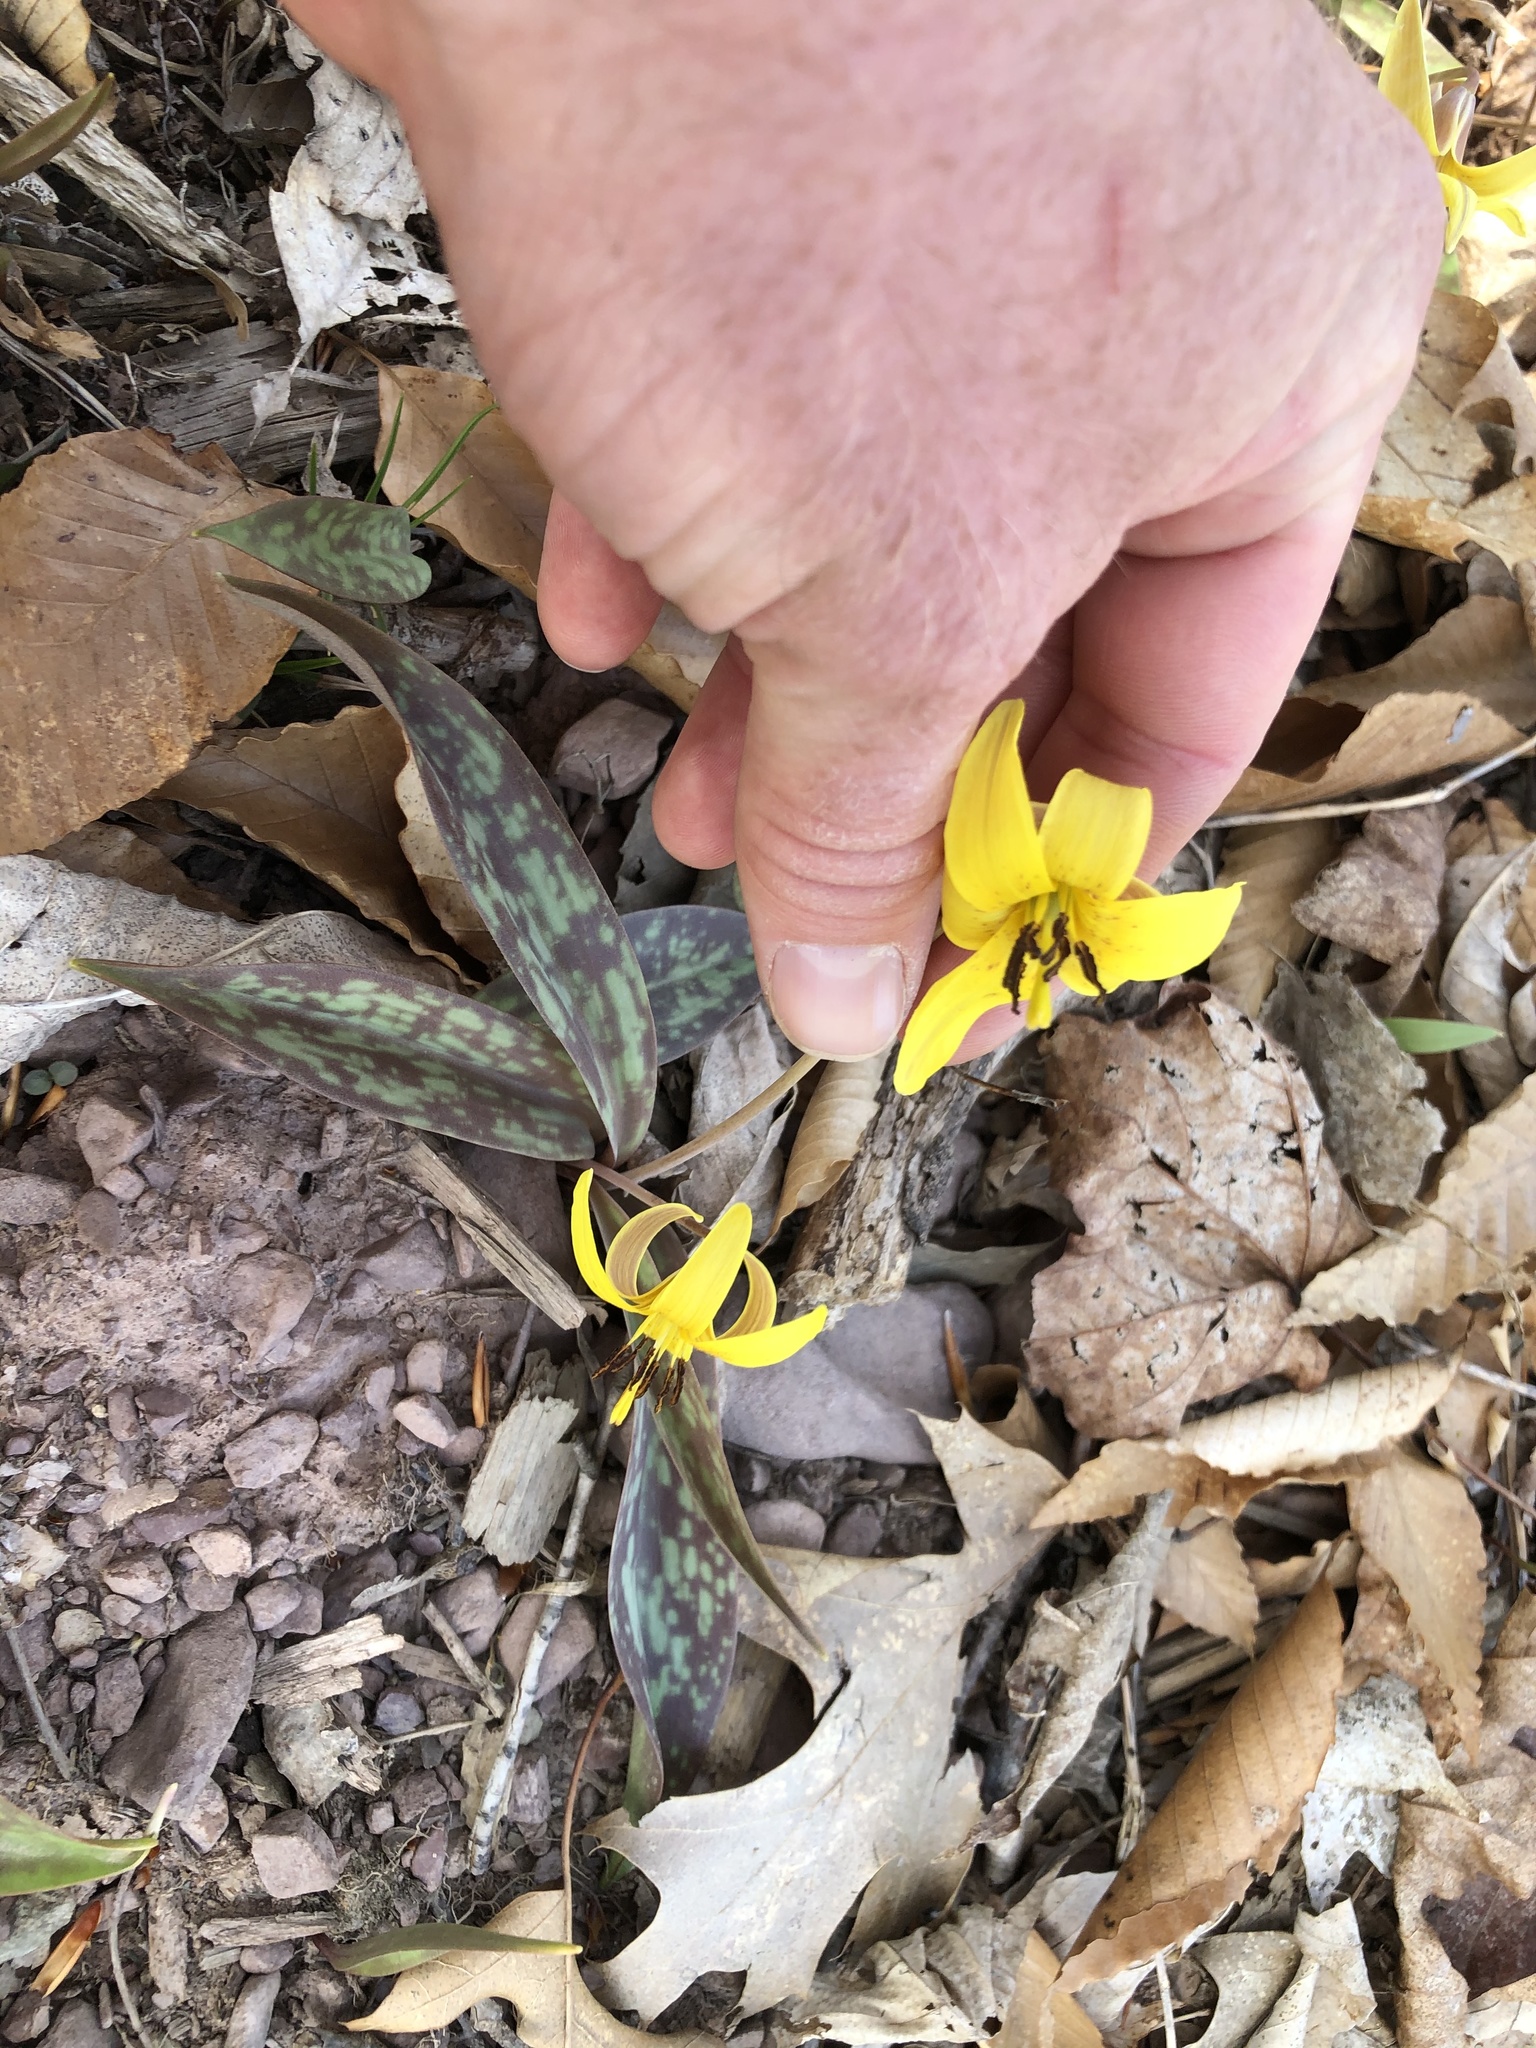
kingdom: Plantae
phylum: Tracheophyta
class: Liliopsida
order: Liliales
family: Liliaceae
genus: Erythronium
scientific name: Erythronium americanum
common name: Yellow adder's-tongue
